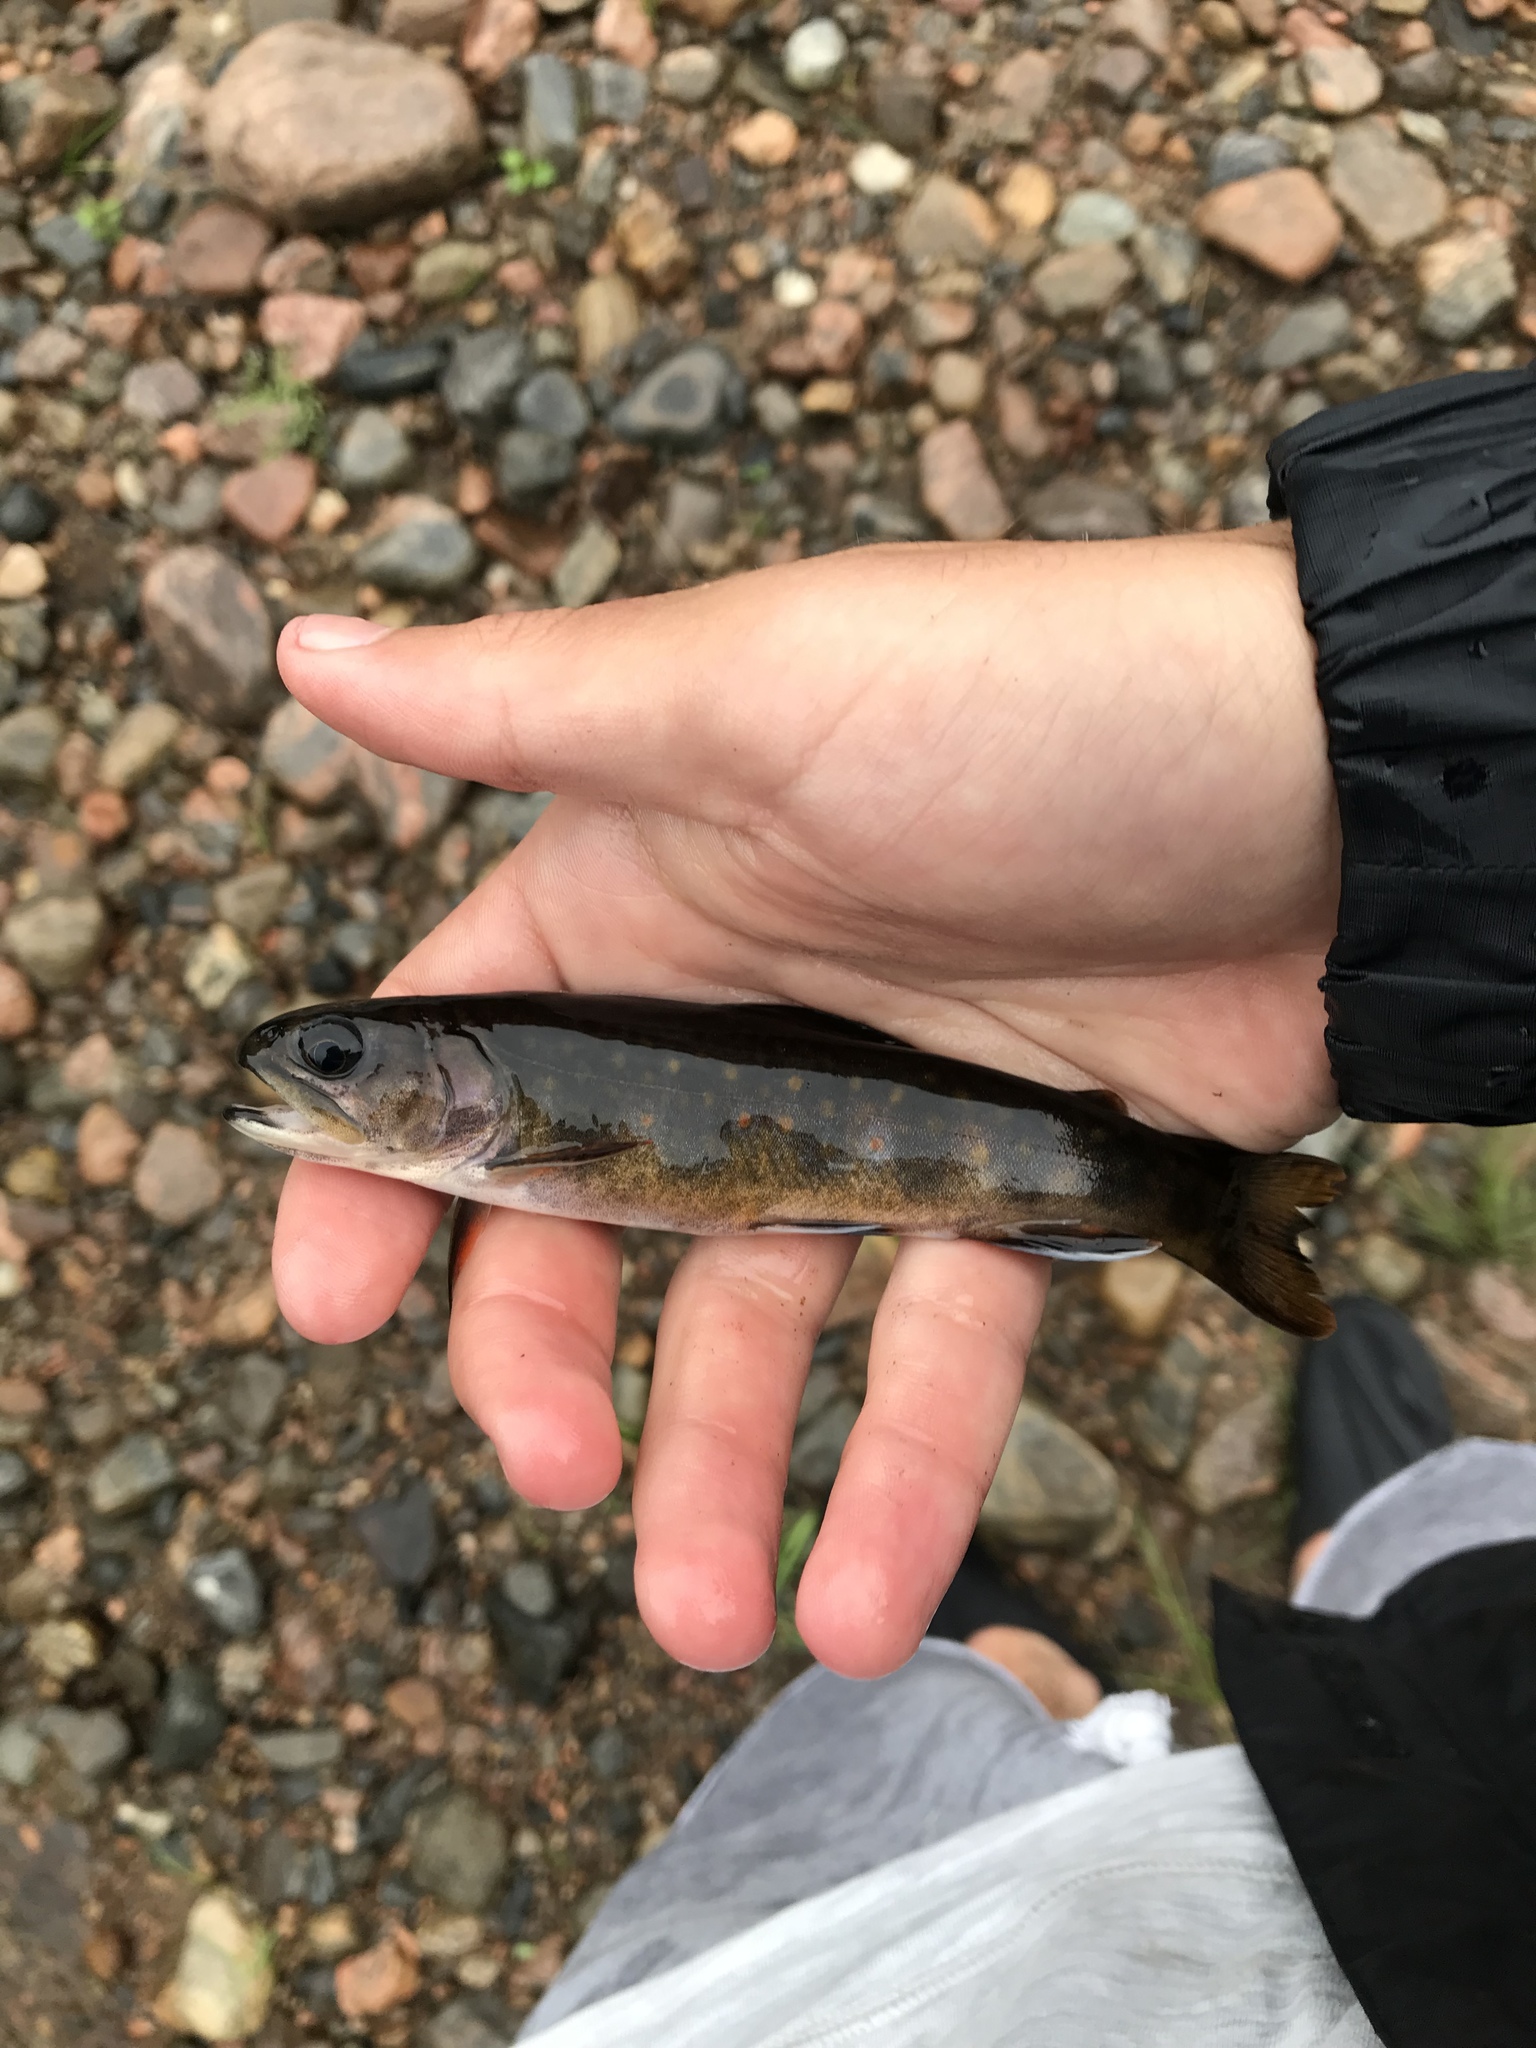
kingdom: Animalia
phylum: Chordata
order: Salmoniformes
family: Salmonidae
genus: Salvelinus
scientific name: Salvelinus fontinalis
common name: Brook trout
